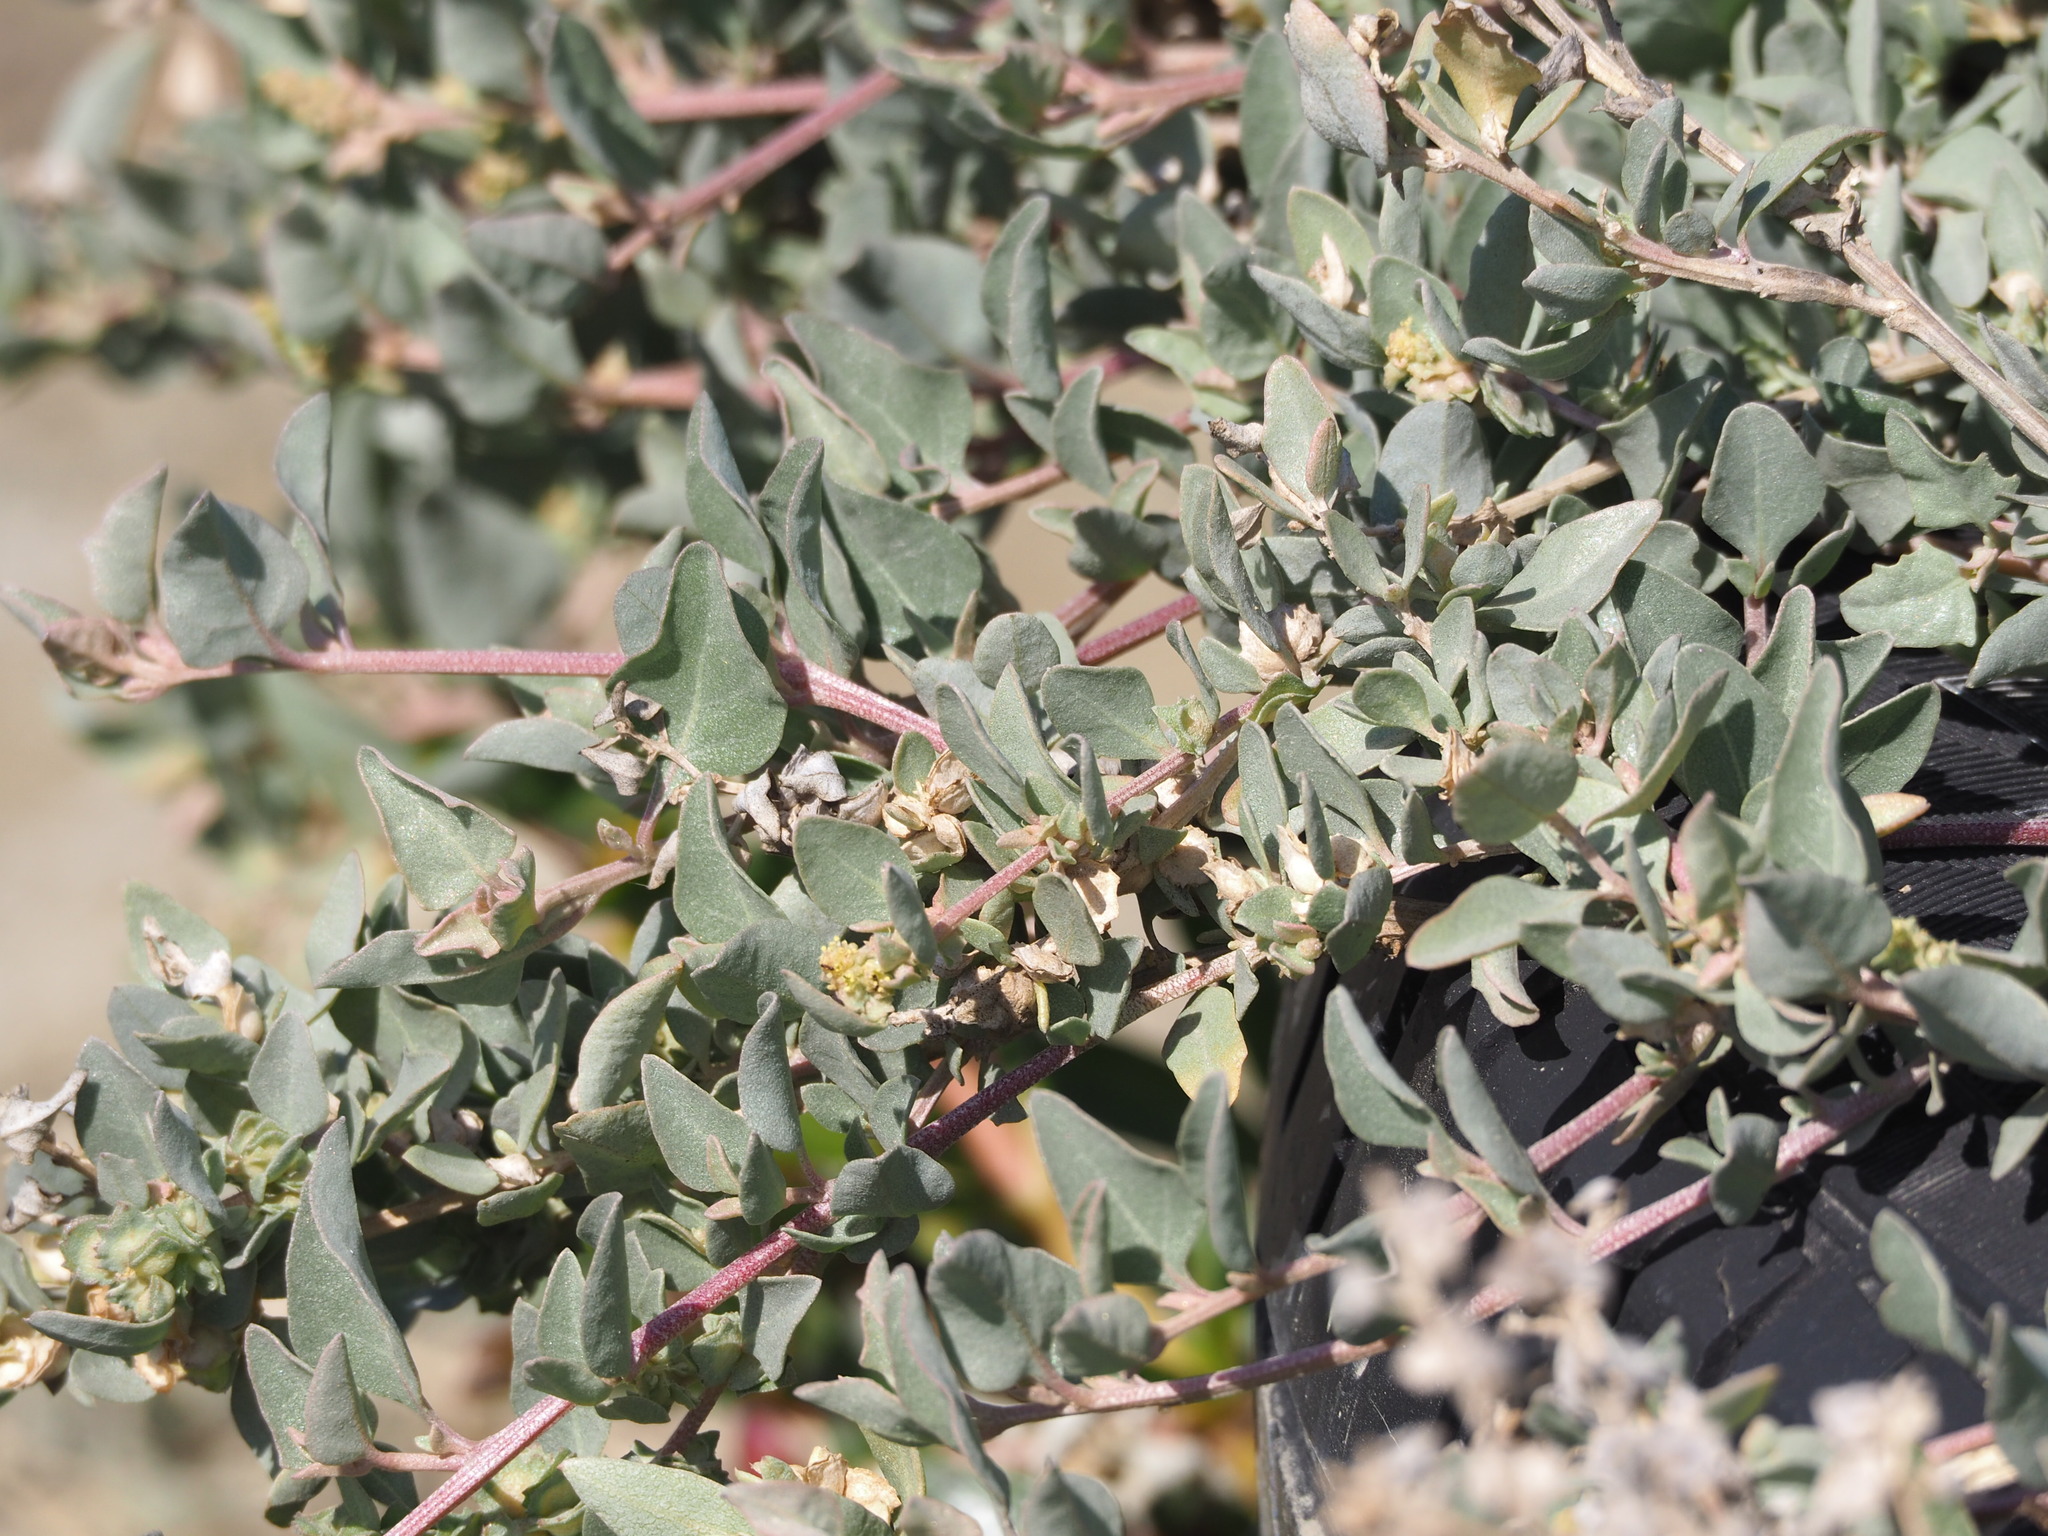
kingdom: Plantae
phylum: Tracheophyta
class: Magnoliopsida
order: Caryophyllales
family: Amaranthaceae
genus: Atriplex
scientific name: Atriplex maximowicziana
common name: Maximowicz's saltbush
